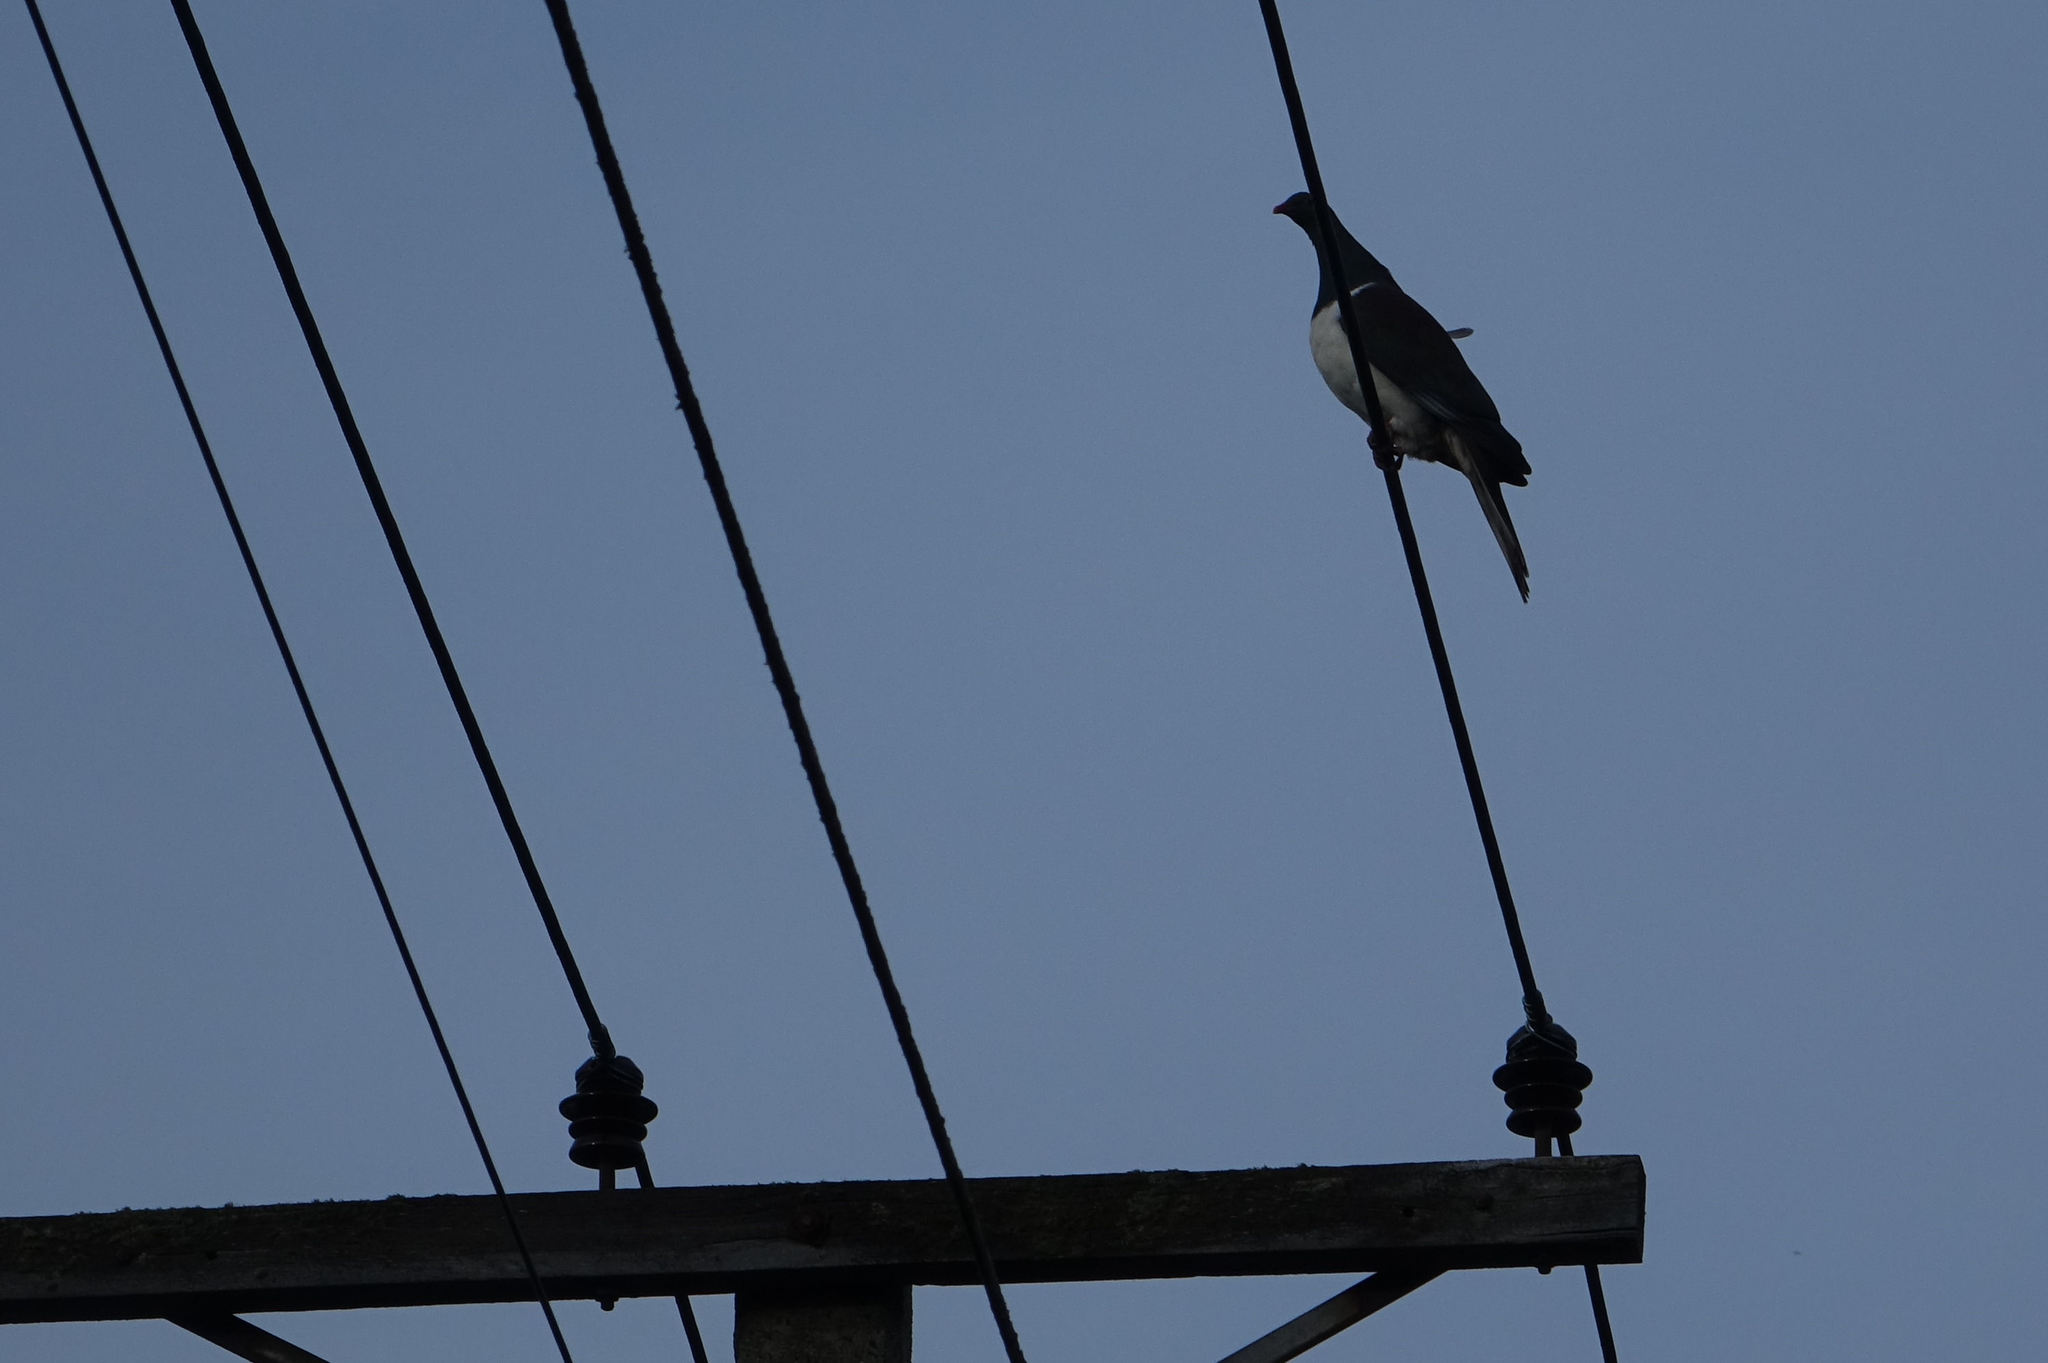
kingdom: Animalia
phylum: Chordata
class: Aves
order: Columbiformes
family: Columbidae
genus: Hemiphaga
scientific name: Hemiphaga novaeseelandiae
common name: New zealand pigeon
